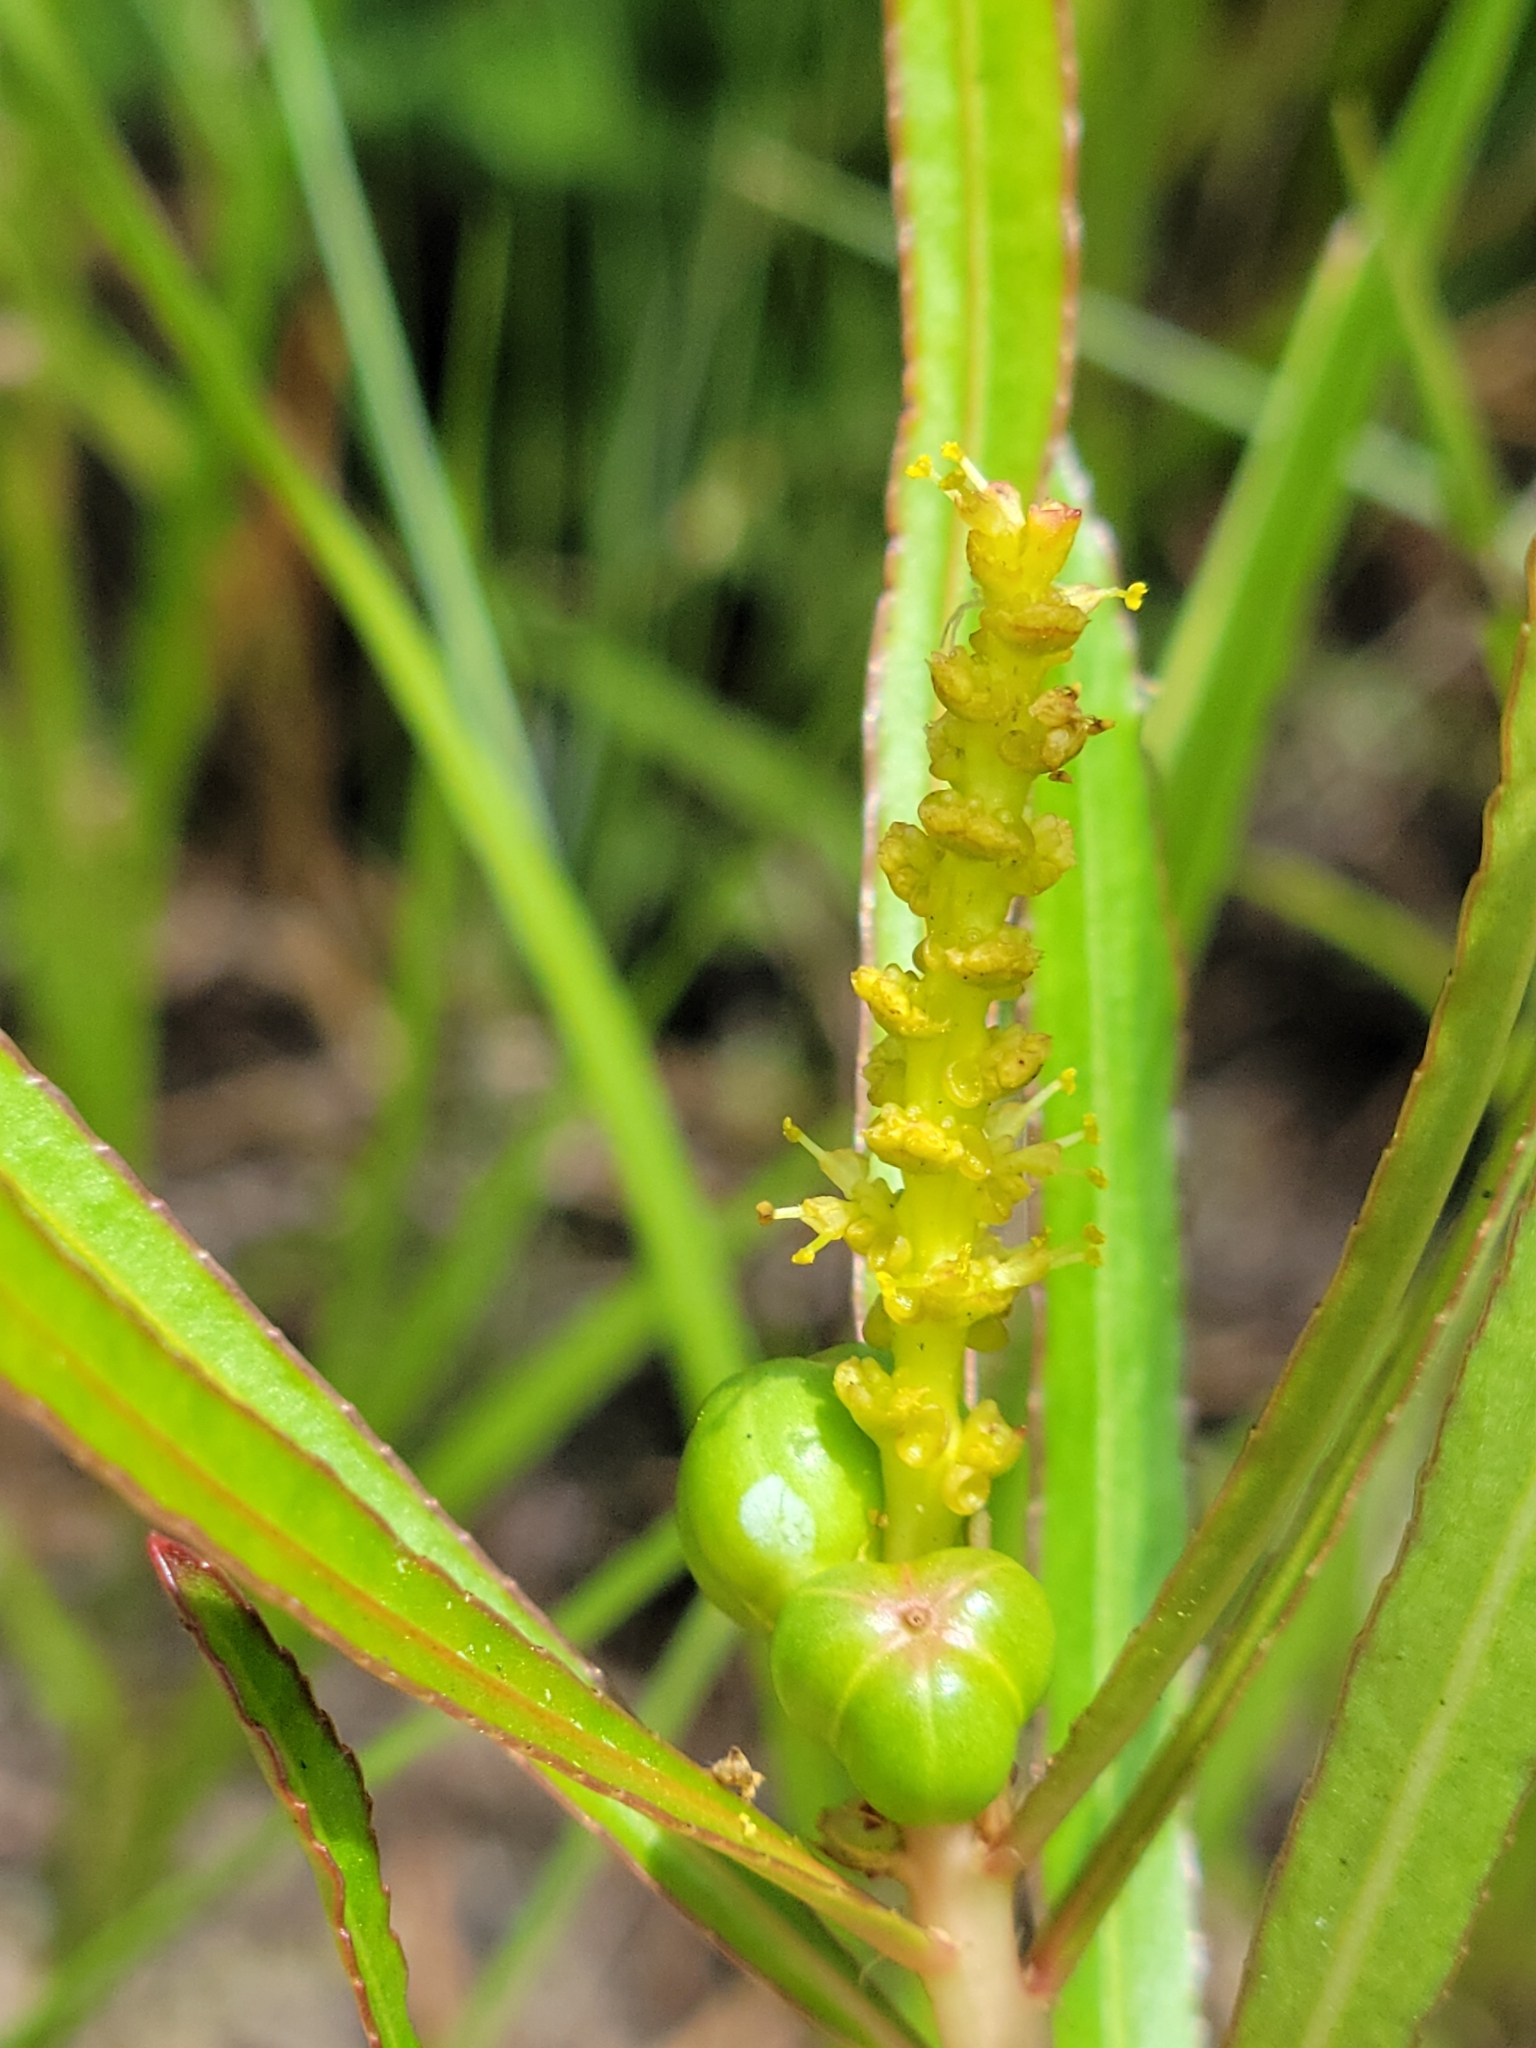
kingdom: Plantae
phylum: Tracheophyta
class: Magnoliopsida
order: Malpighiales
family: Euphorbiaceae
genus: Stillingia
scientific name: Stillingia sylvatica
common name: Queen's-delight
